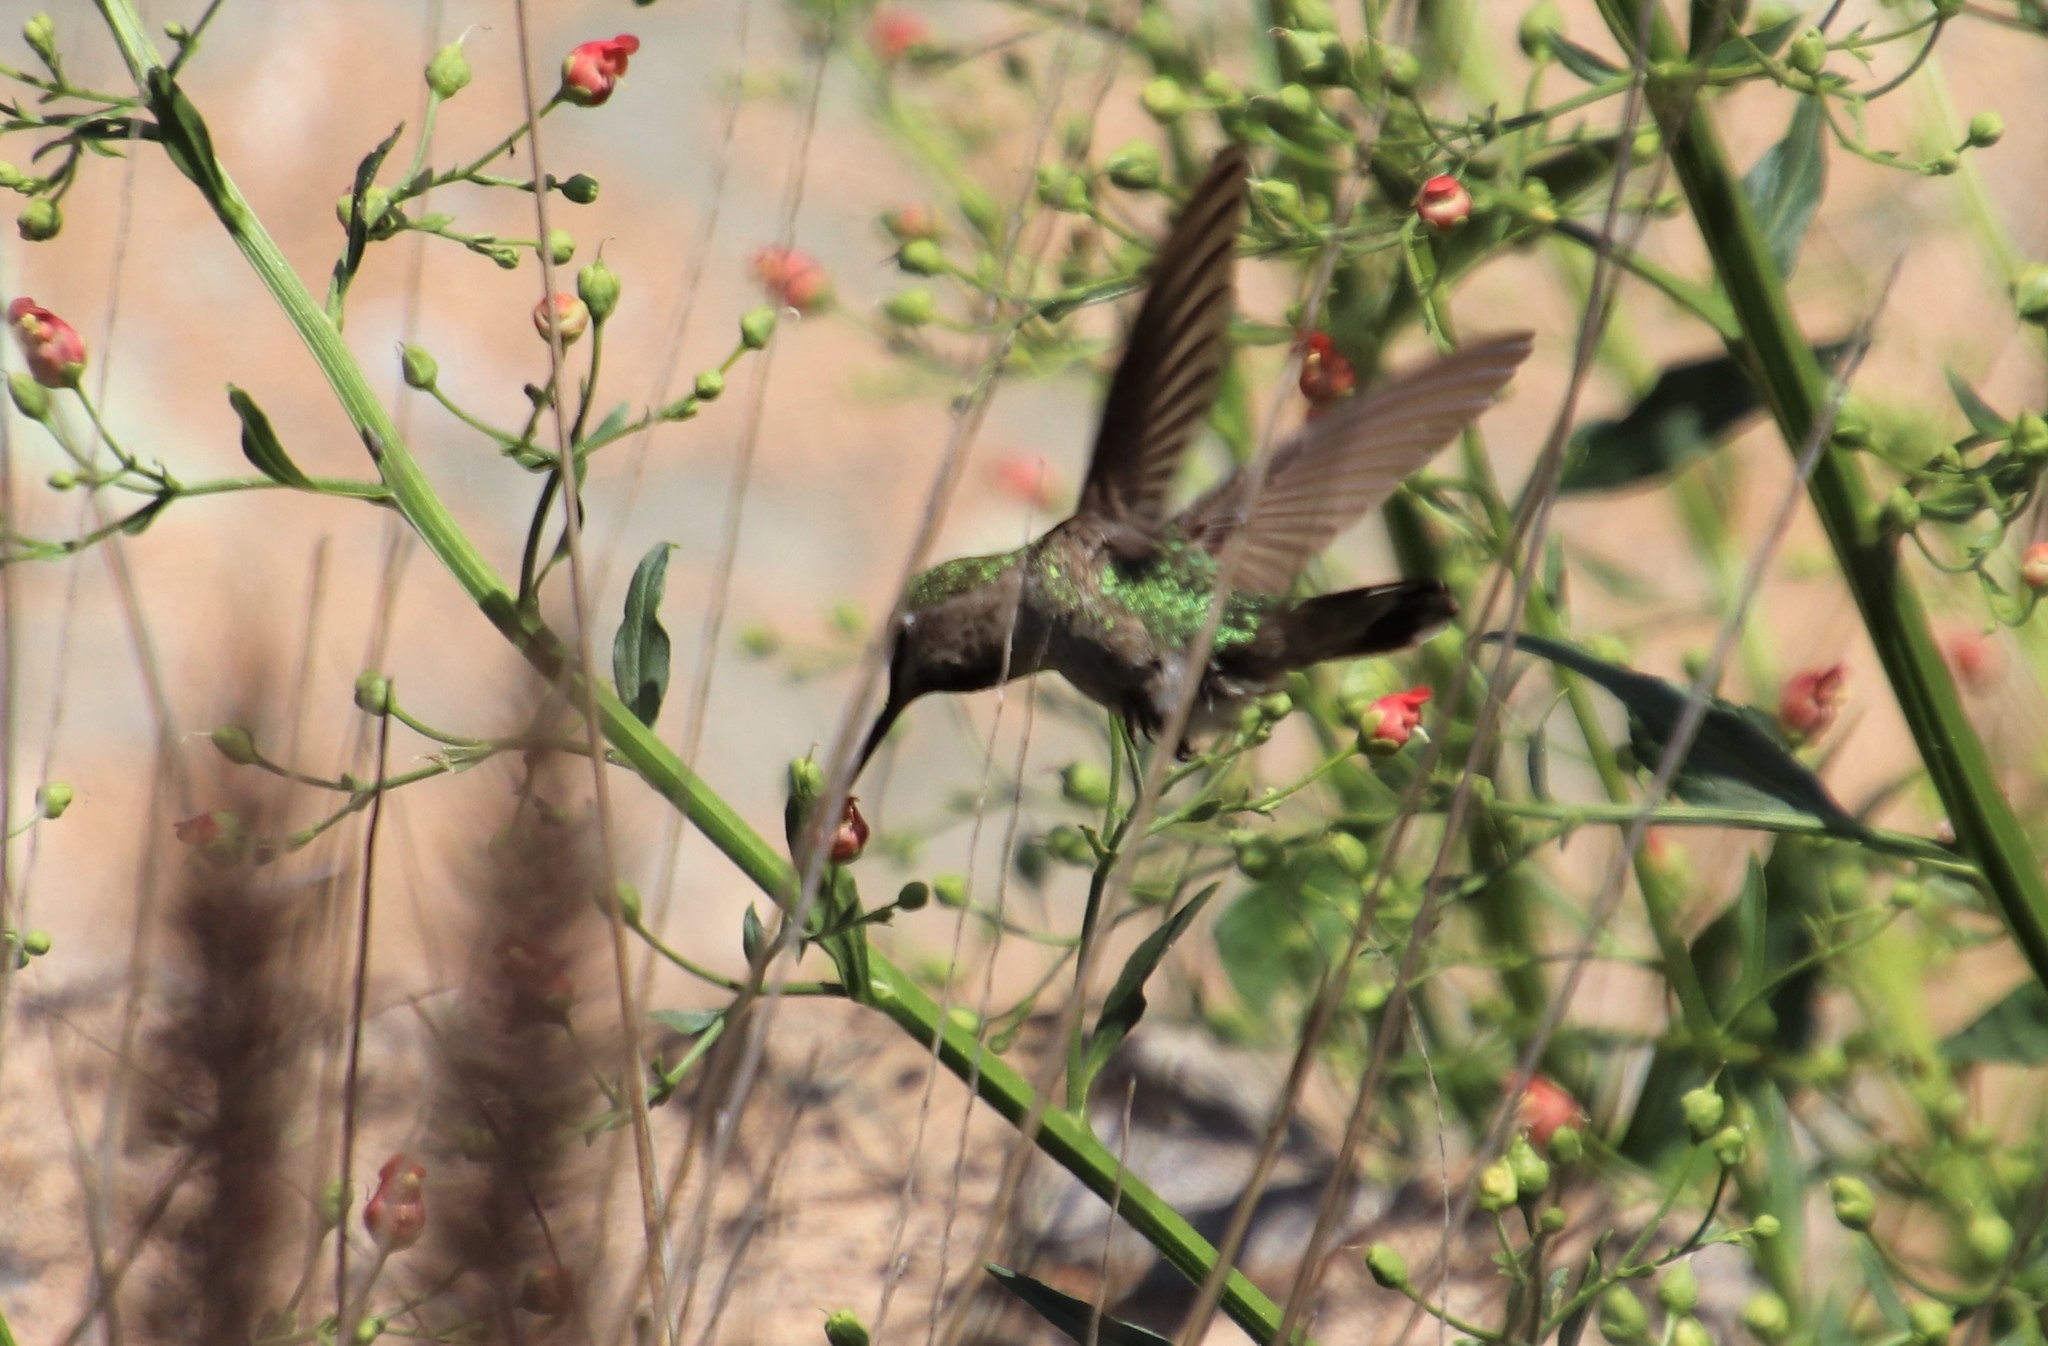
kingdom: Animalia
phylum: Chordata
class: Aves
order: Apodiformes
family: Trochilidae
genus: Calypte
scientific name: Calypte anna
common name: Anna's hummingbird
